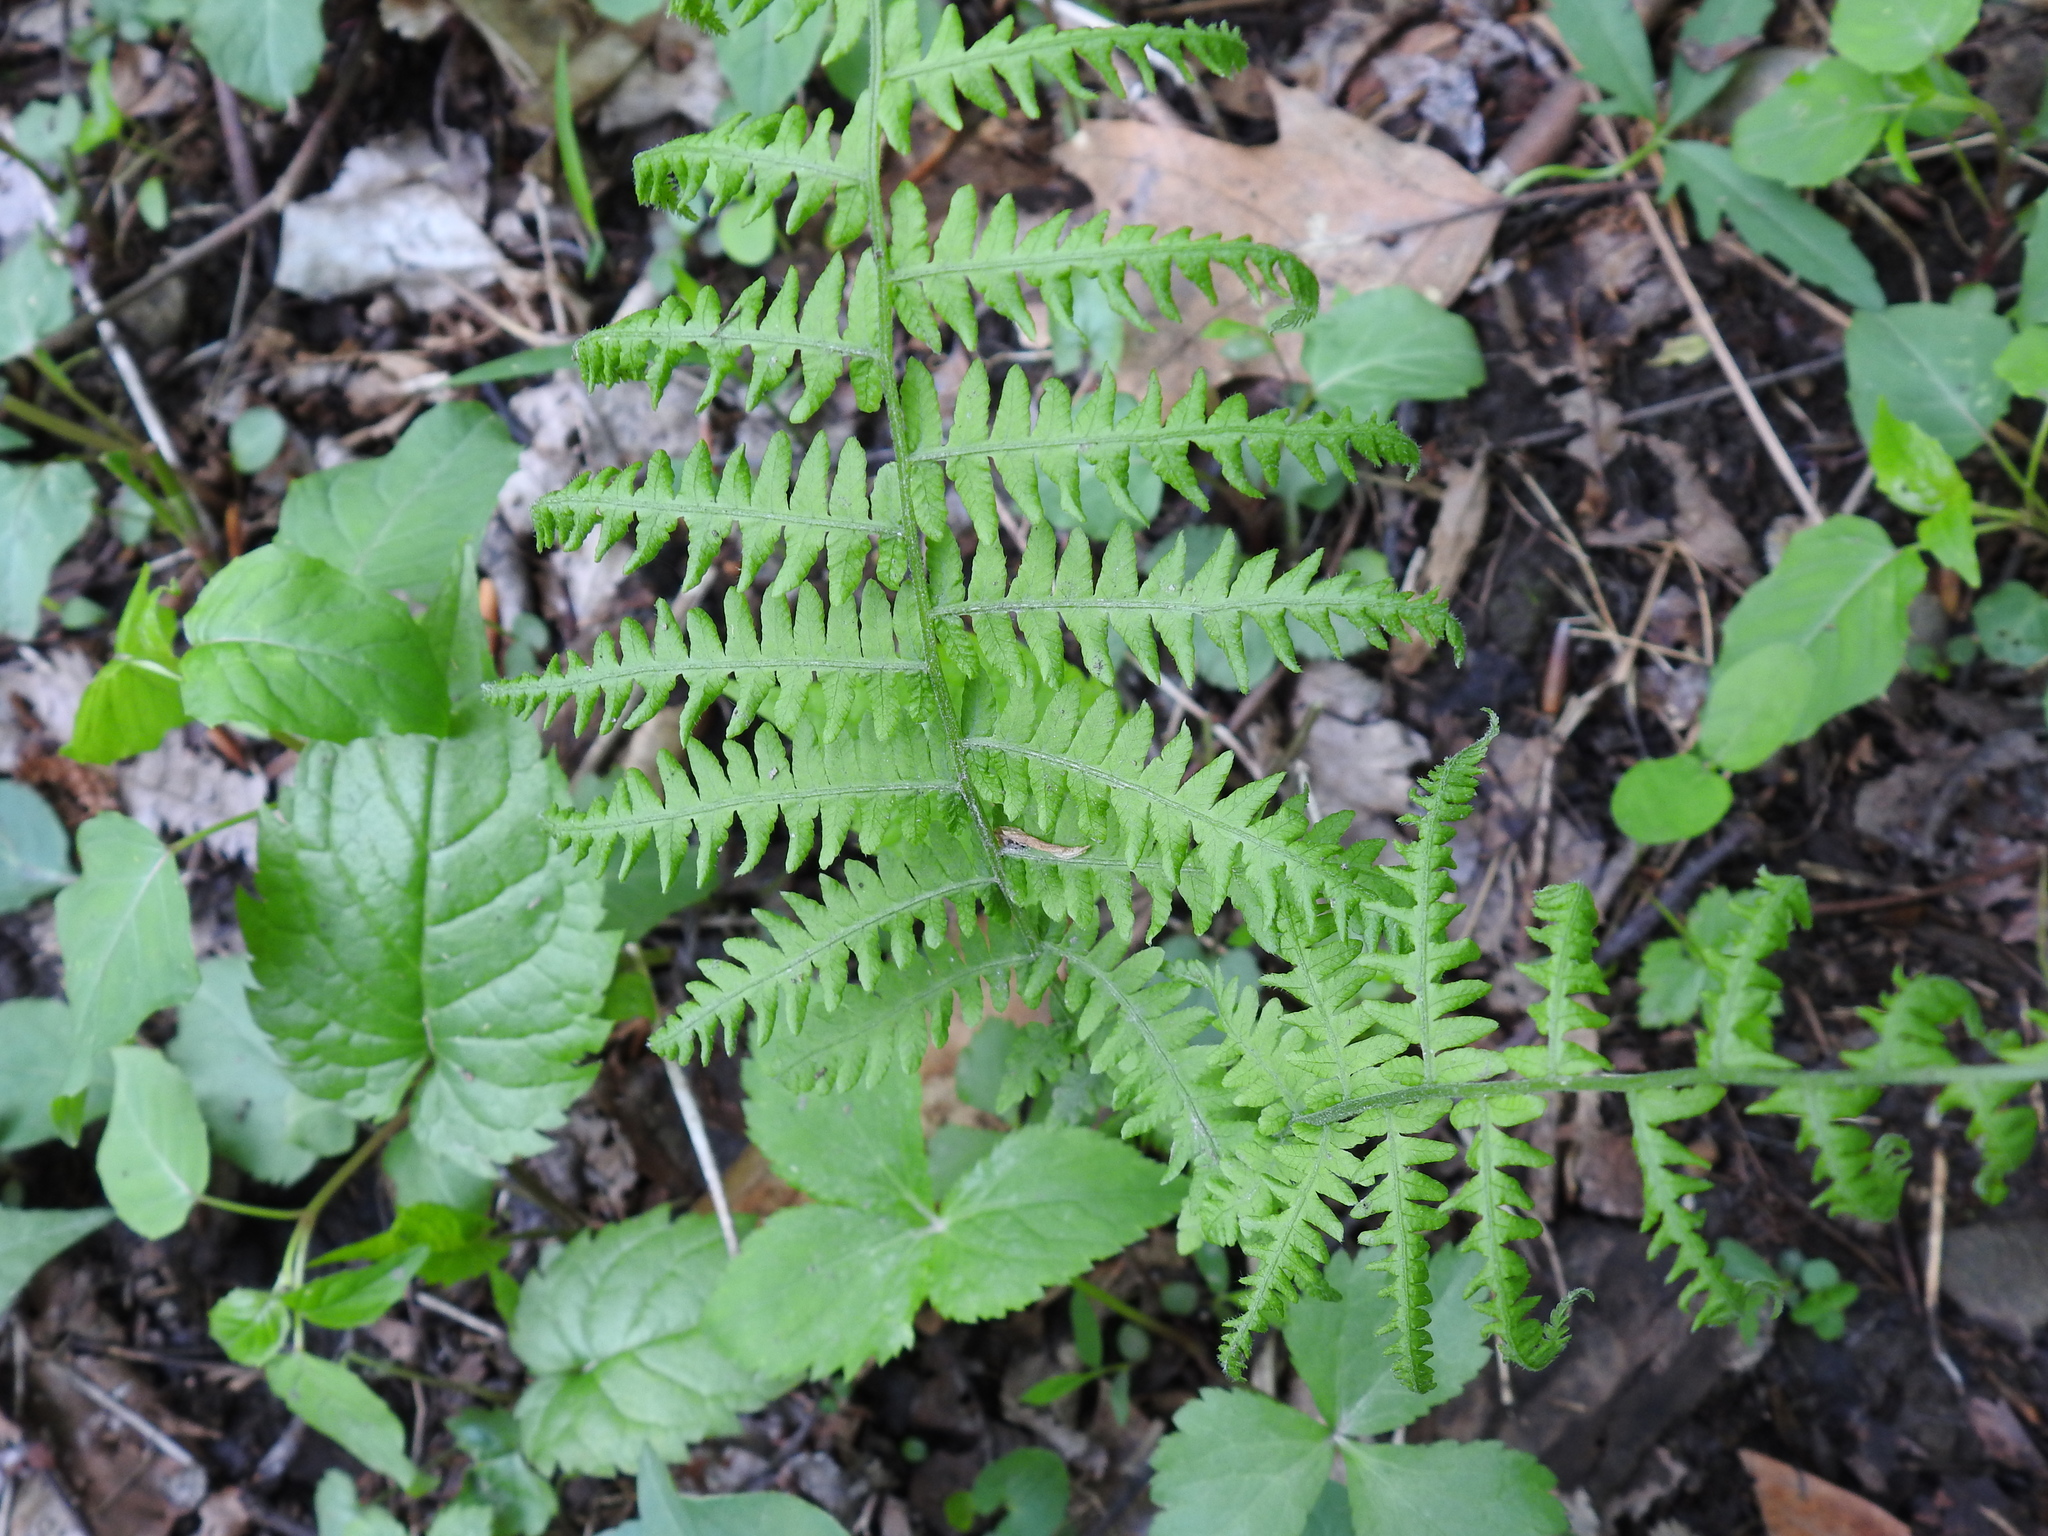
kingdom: Plantae
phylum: Tracheophyta
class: Polypodiopsida
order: Polypodiales
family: Thelypteridaceae
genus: Amauropelta
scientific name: Amauropelta noveboracensis
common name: New york fern
